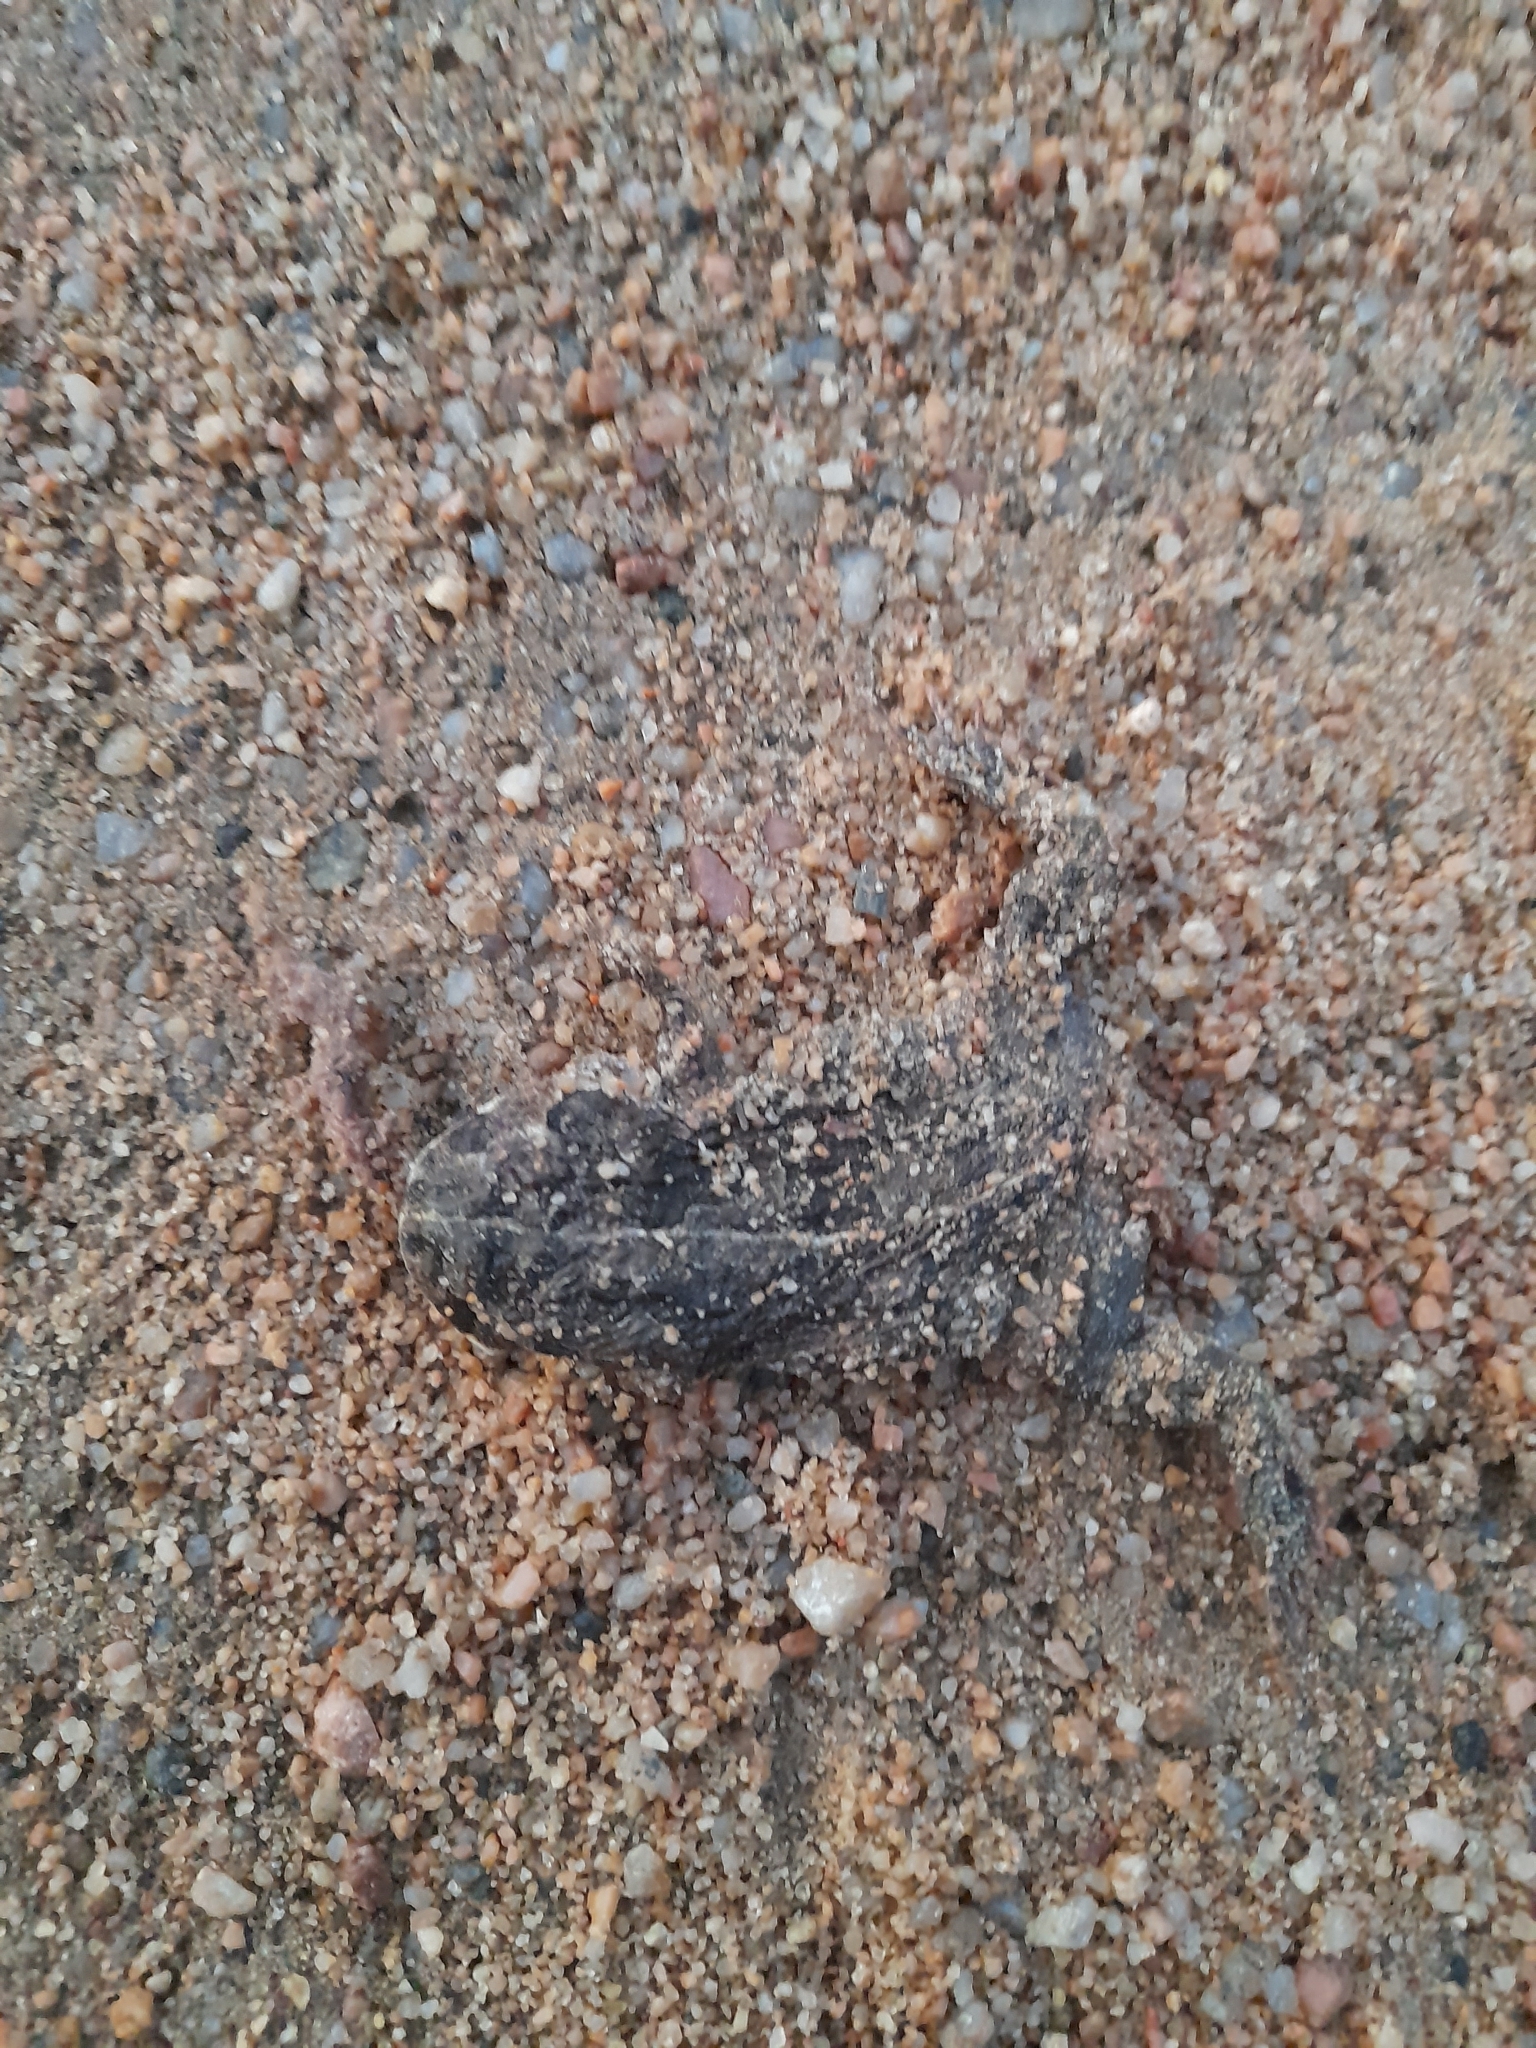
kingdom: Animalia
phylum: Chordata
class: Amphibia
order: Anura
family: Bufonidae
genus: Rhinella
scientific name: Rhinella dorbignyi
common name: D´orbigny’s toad
